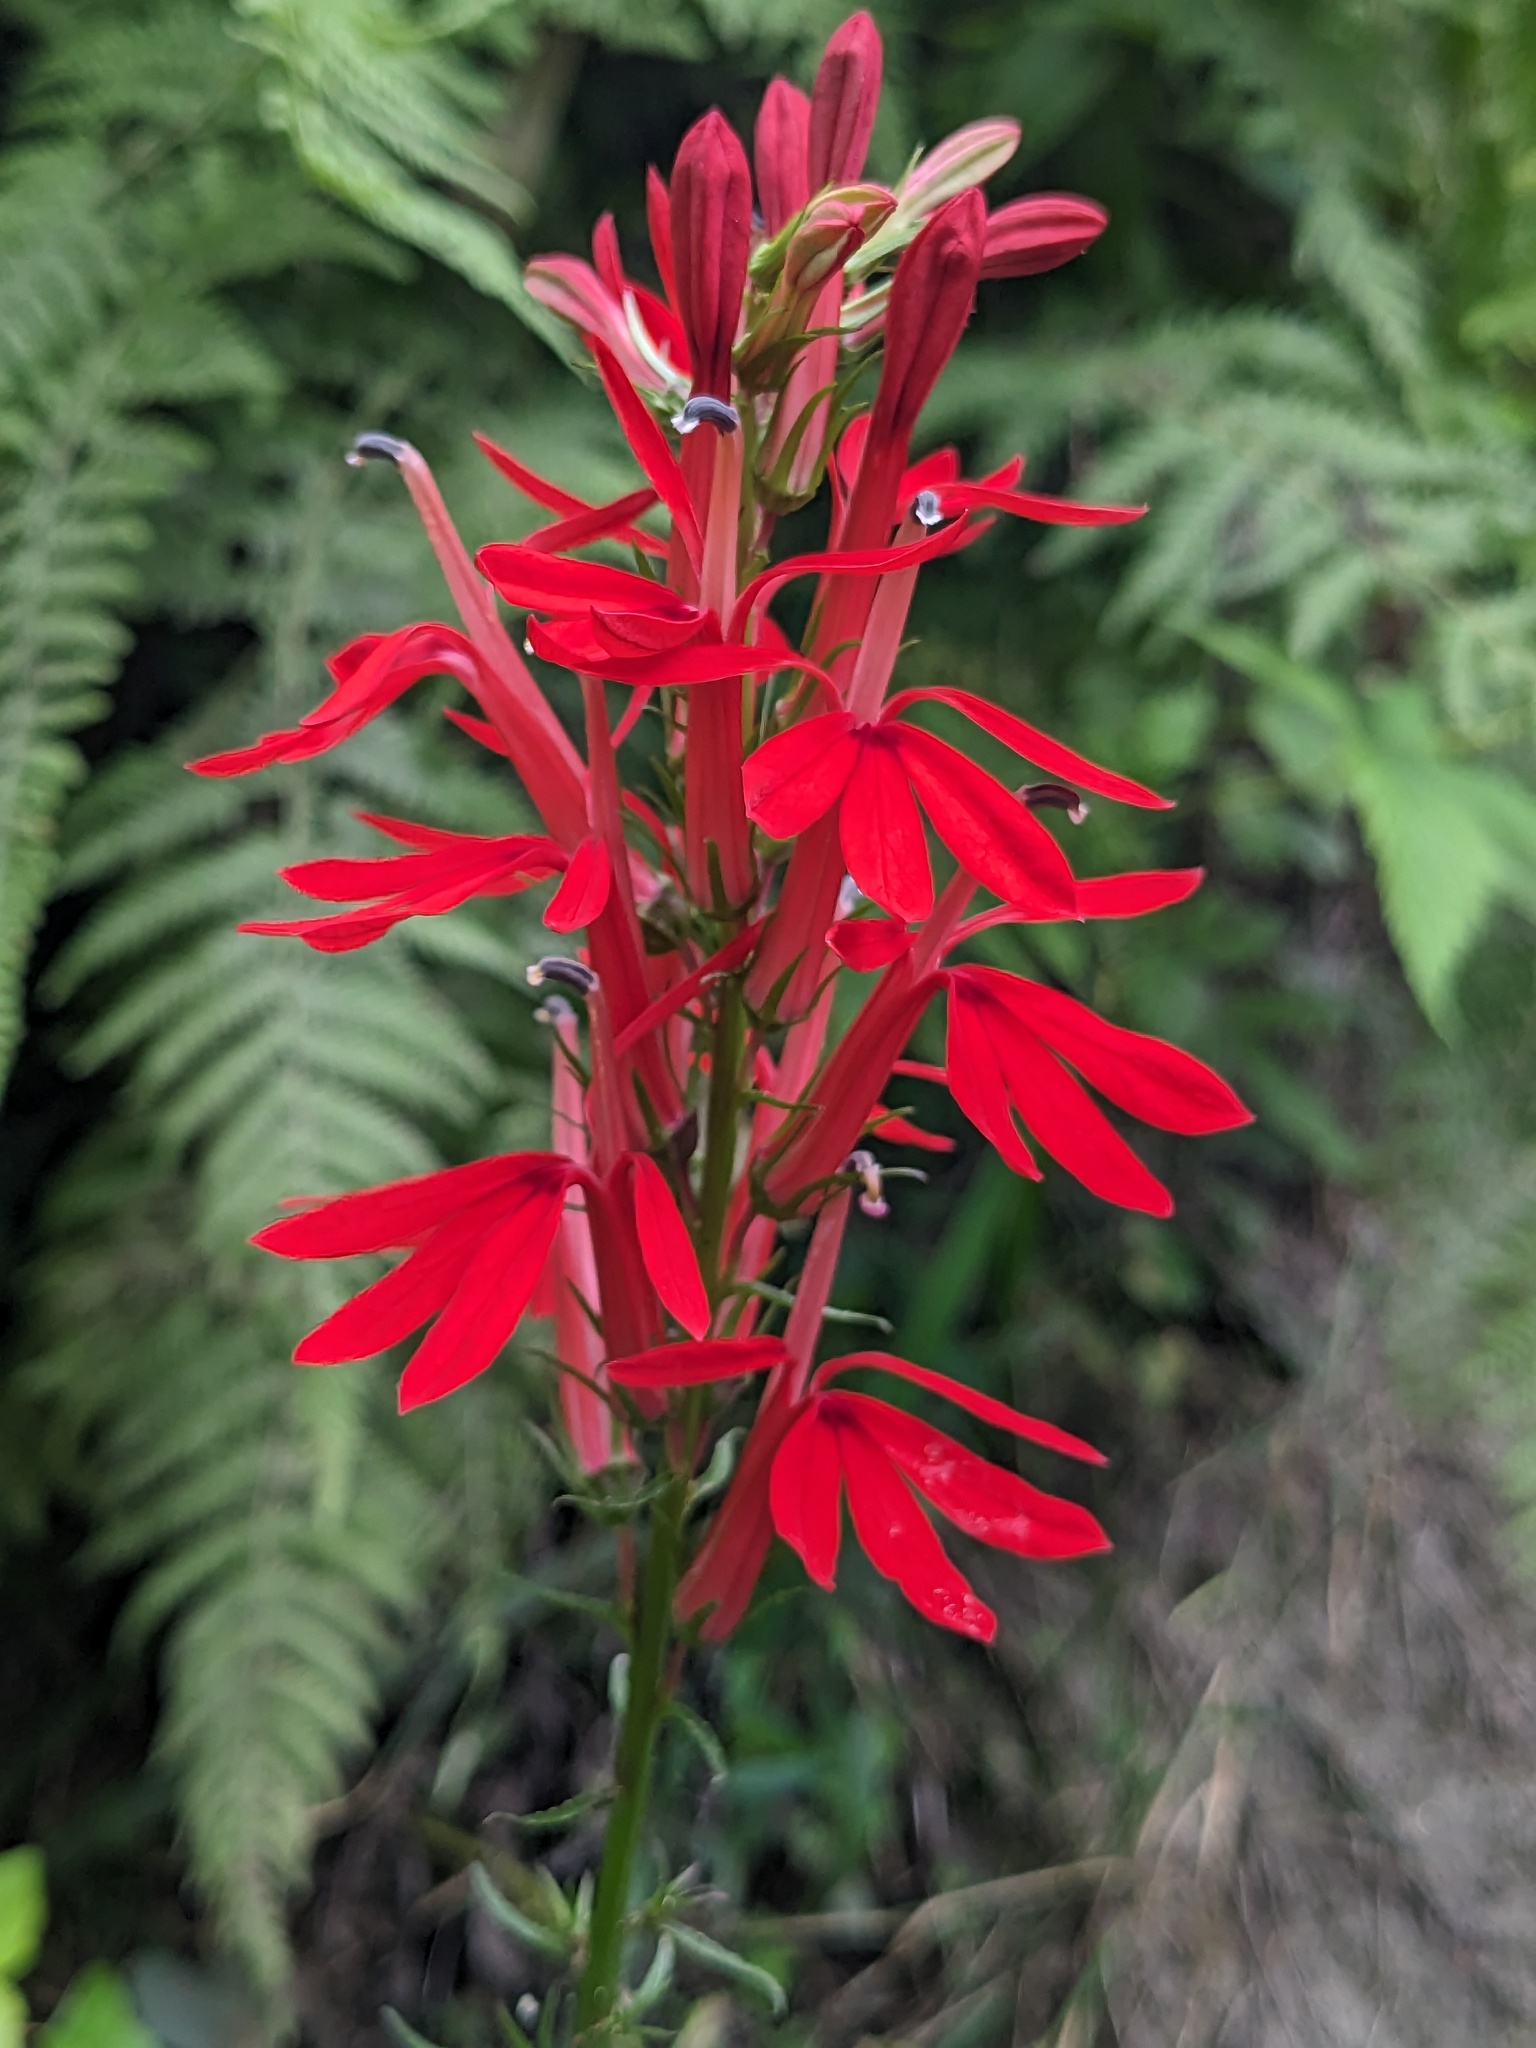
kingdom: Plantae
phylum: Tracheophyta
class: Magnoliopsida
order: Asterales
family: Campanulaceae
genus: Lobelia
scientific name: Lobelia cardinalis
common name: Cardinal flower
